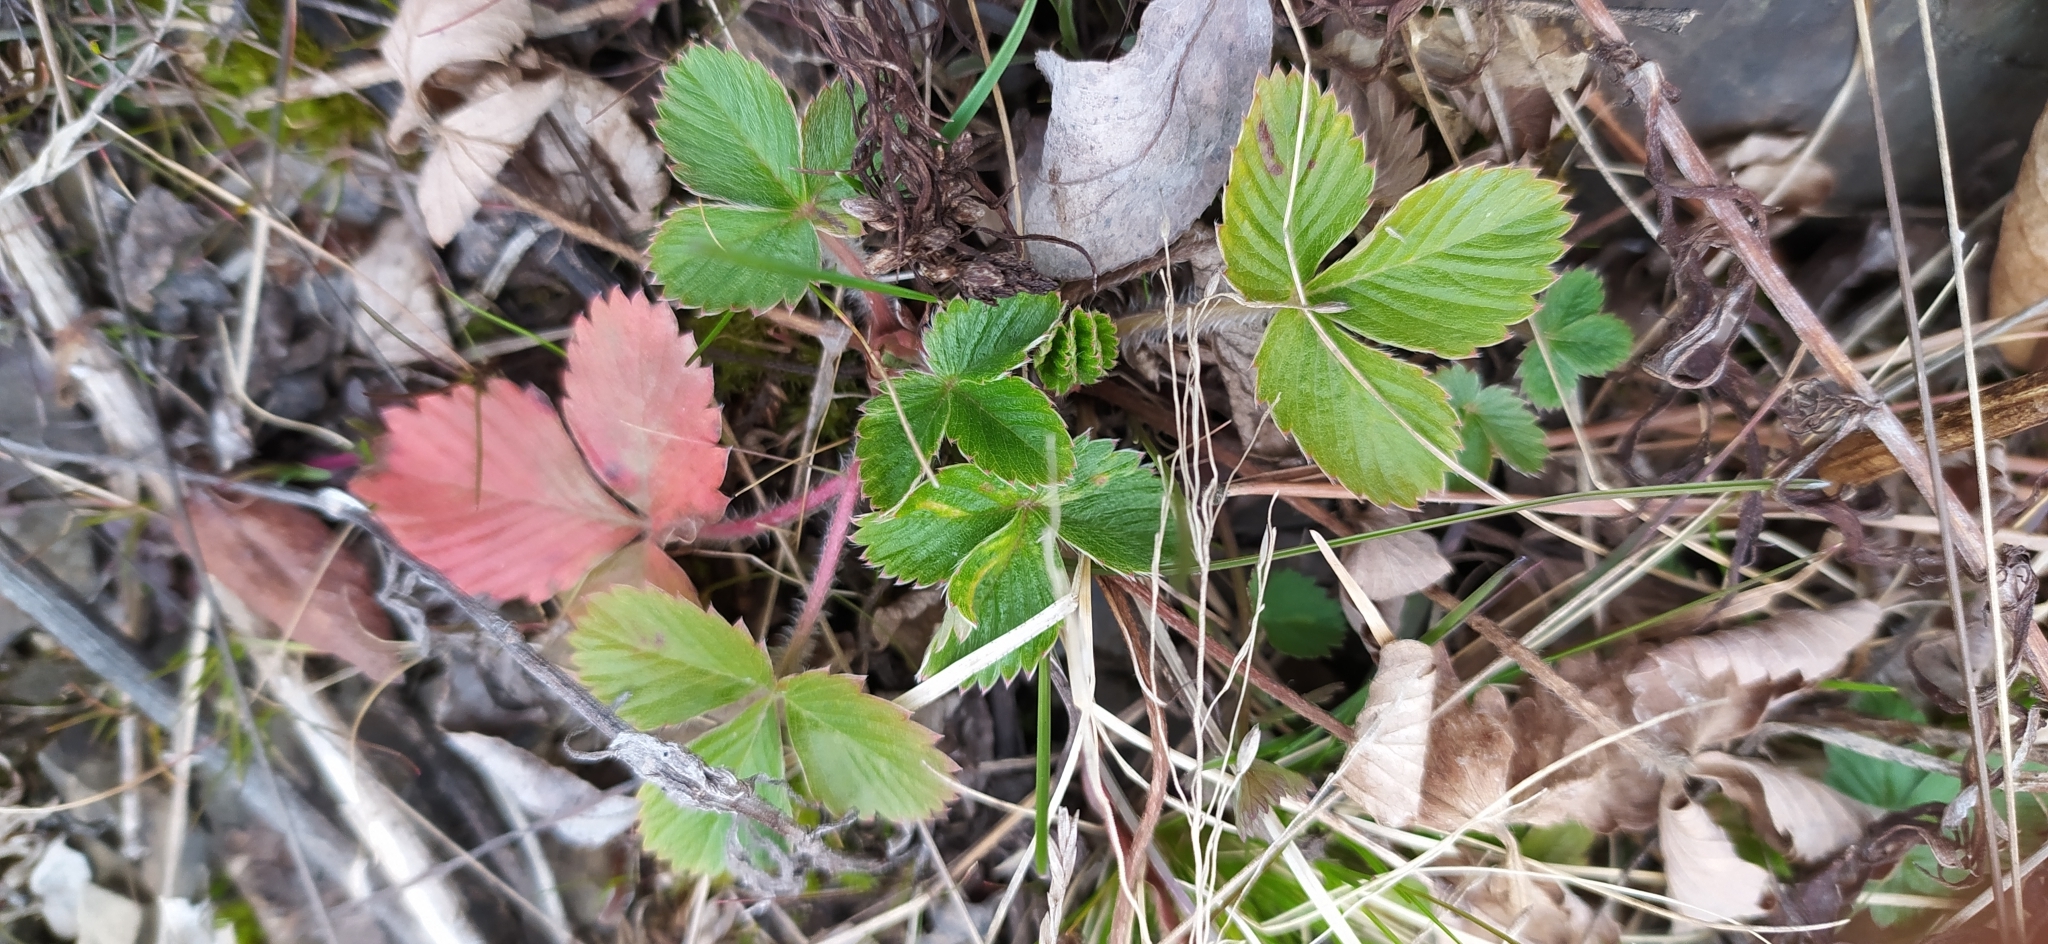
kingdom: Plantae
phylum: Tracheophyta
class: Magnoliopsida
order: Rosales
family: Rosaceae
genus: Fragaria
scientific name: Fragaria vesca
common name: Wild strawberry
